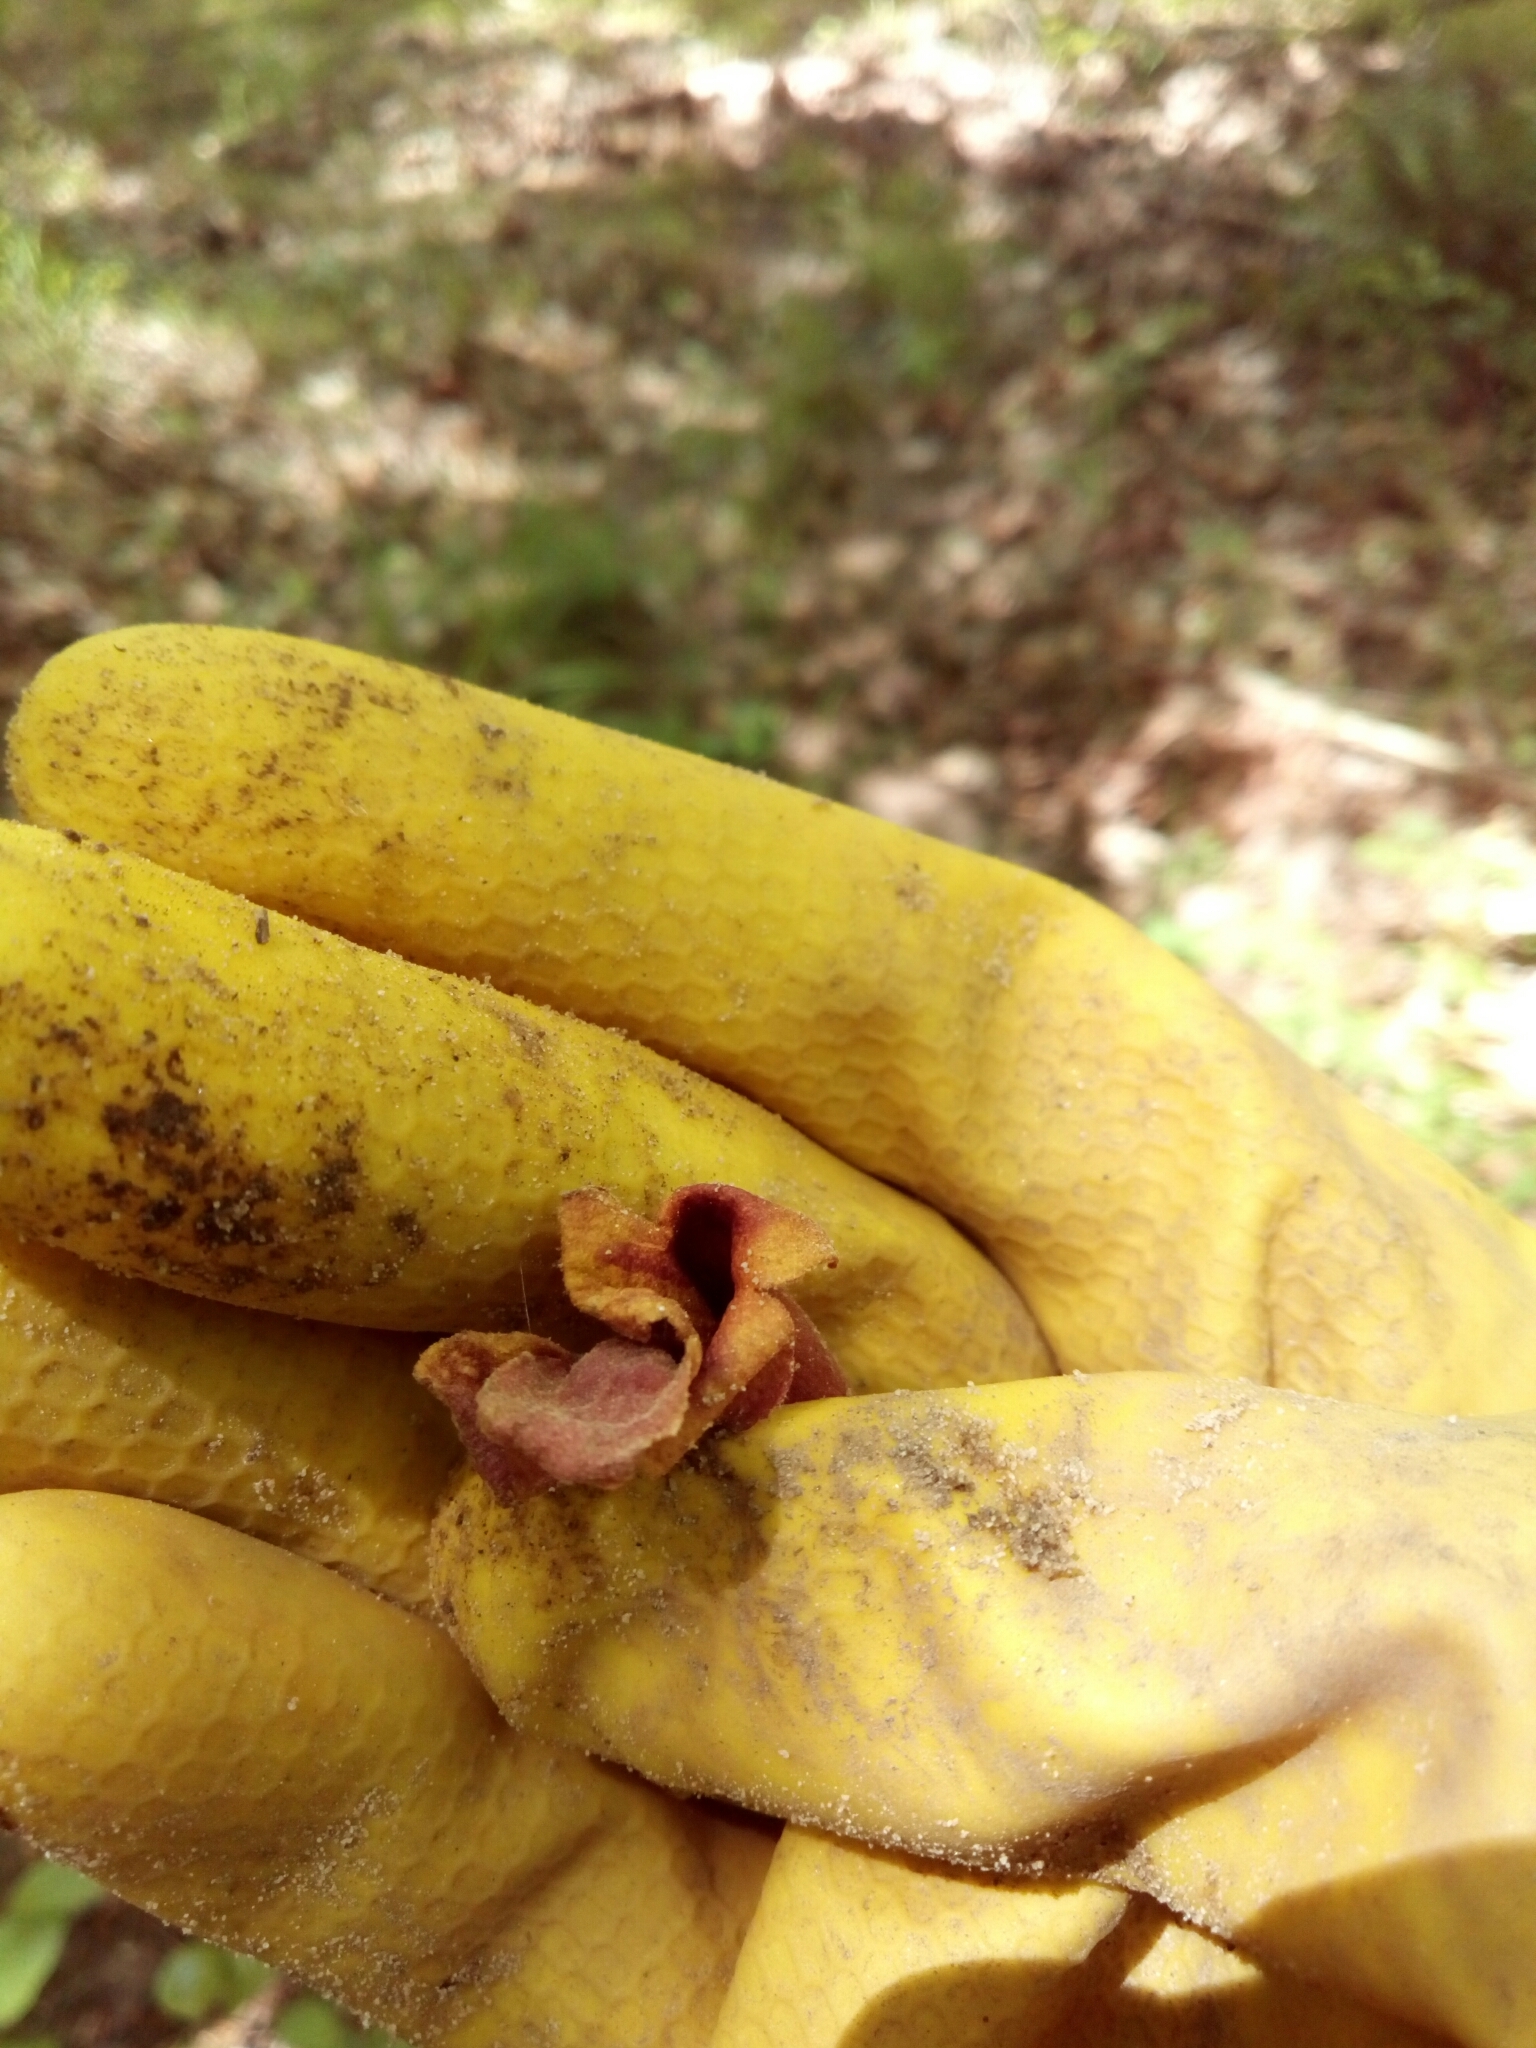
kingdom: Plantae
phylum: Tracheophyta
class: Magnoliopsida
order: Lamiales
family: Bignoniaceae
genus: Bignonia
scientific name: Bignonia capreolata
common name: Crossvine
